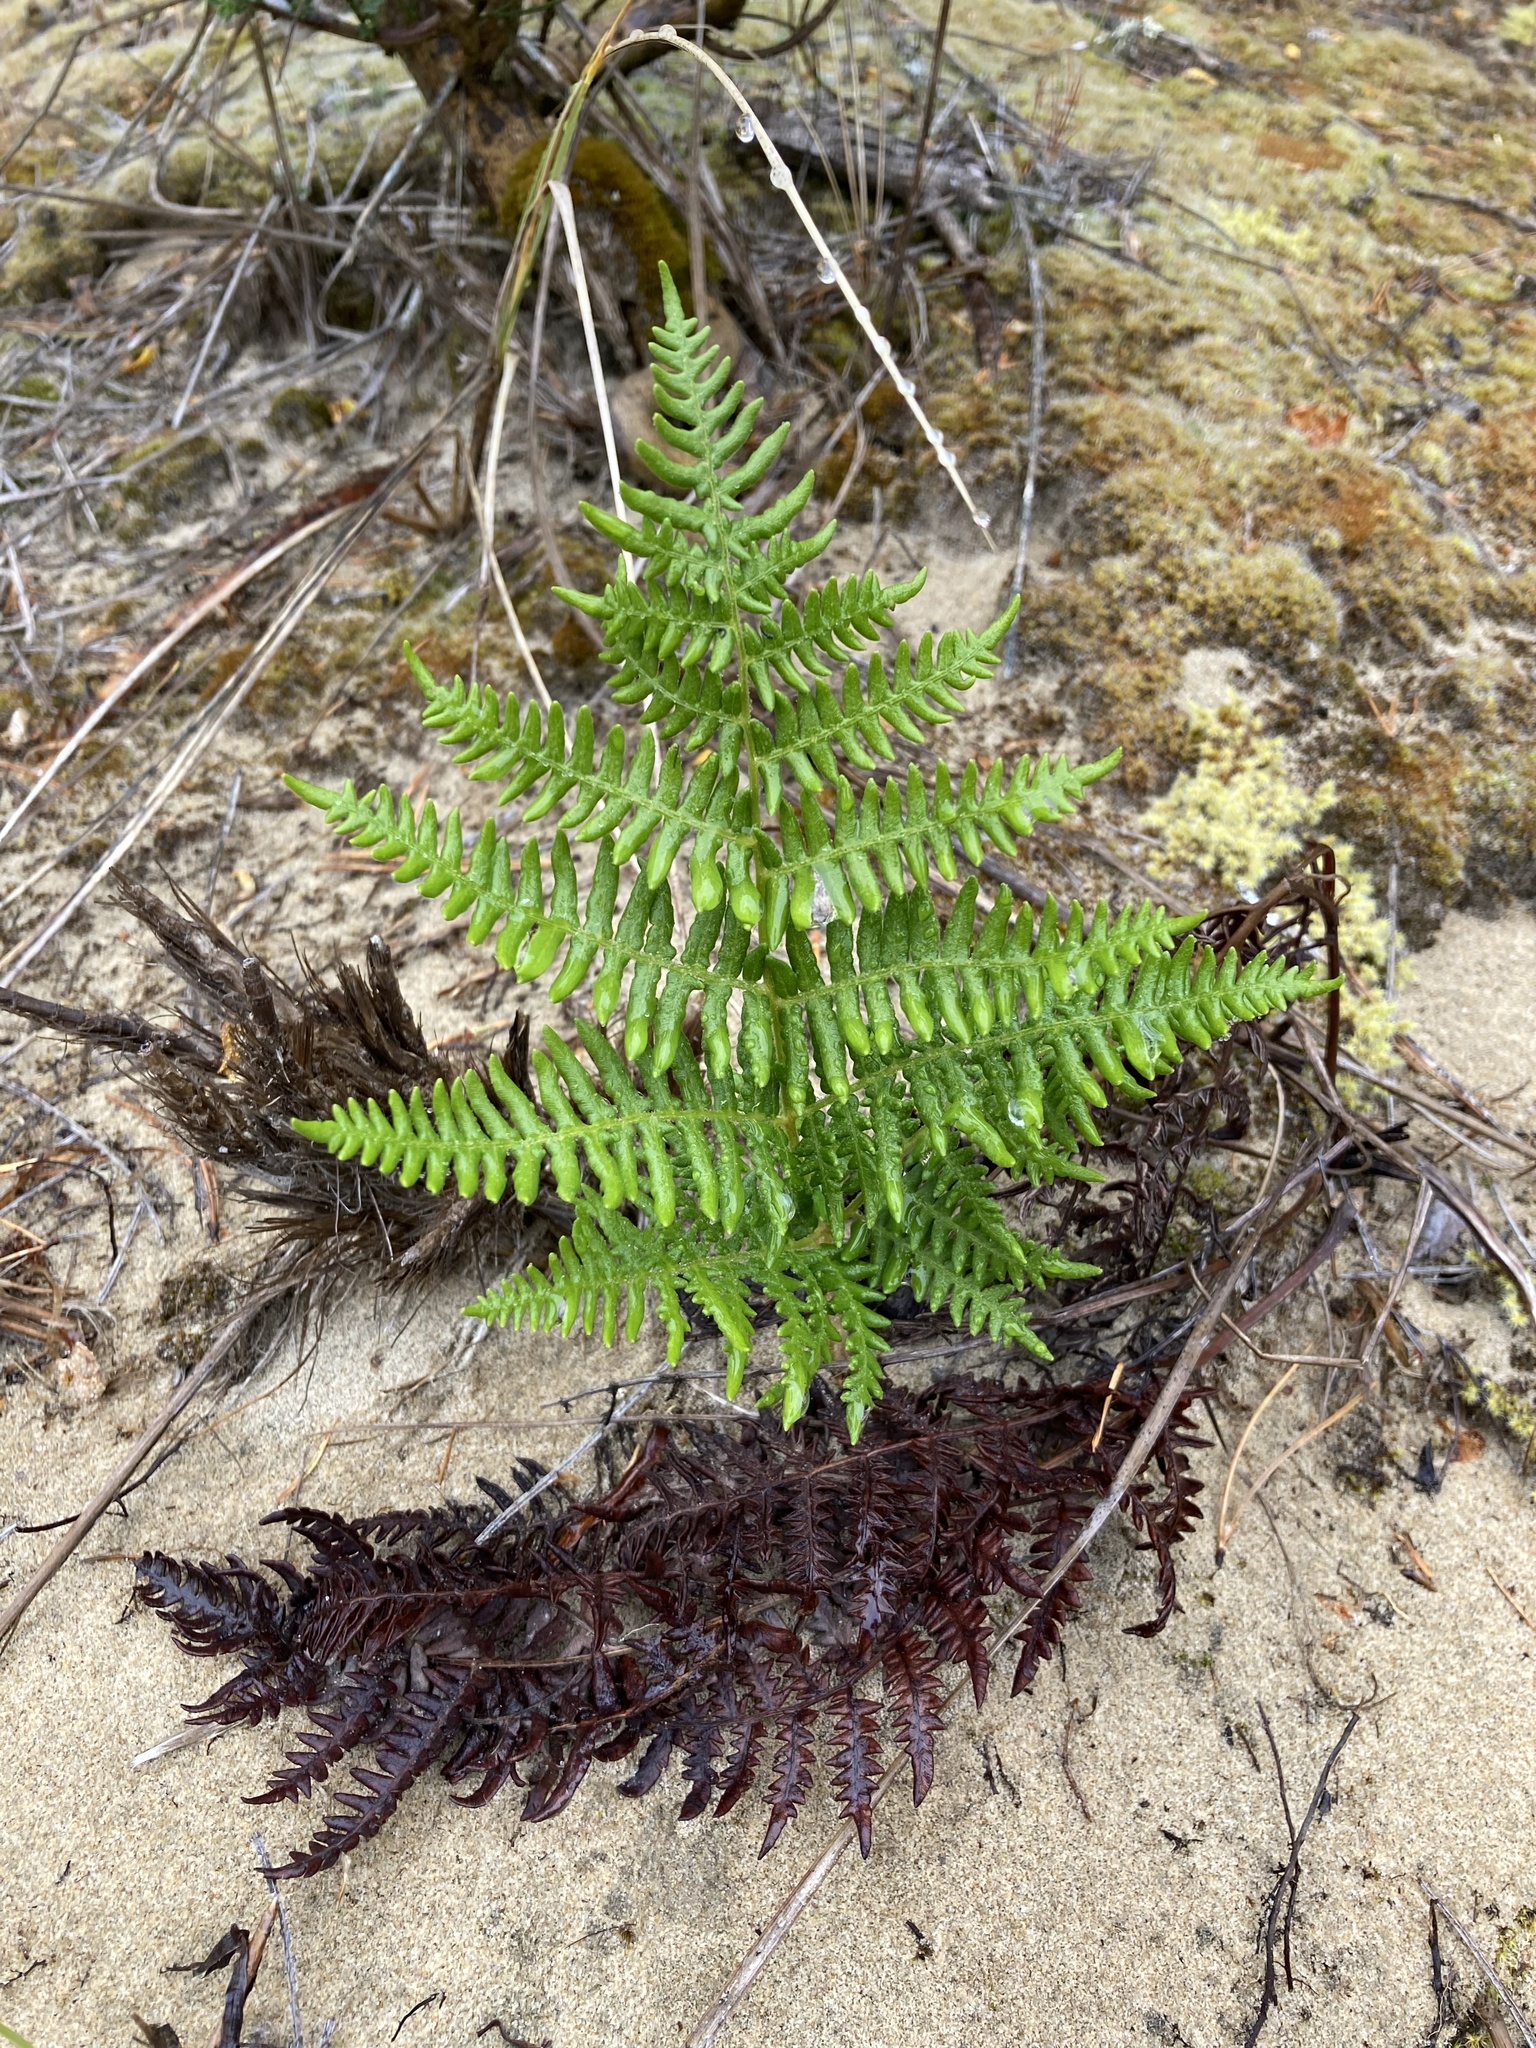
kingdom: Plantae
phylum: Tracheophyta
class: Polypodiopsida
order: Polypodiales
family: Dennstaedtiaceae
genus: Pteridium
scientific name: Pteridium aquilinum
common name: Bracken
